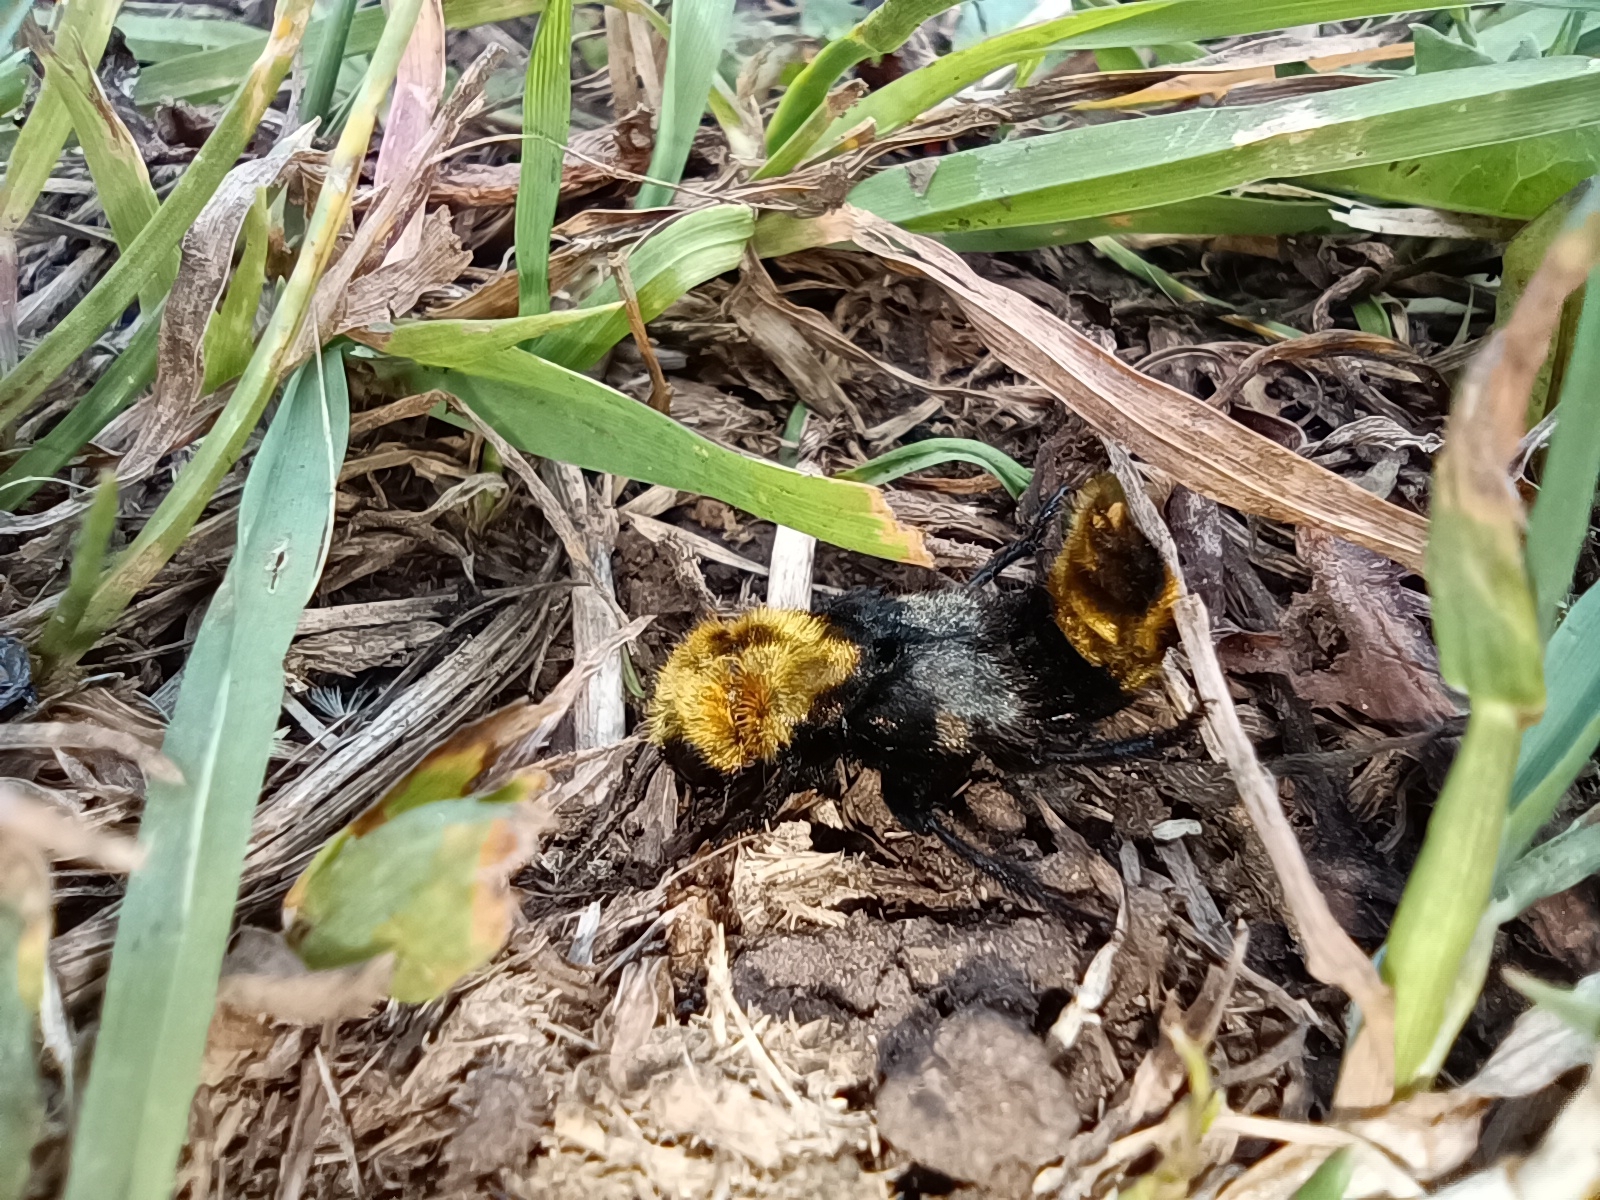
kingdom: Animalia
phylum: Arthropoda
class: Insecta
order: Coleoptera
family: Staphylinidae
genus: Emus
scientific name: Emus hirtus
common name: Hairy rove-beetle
